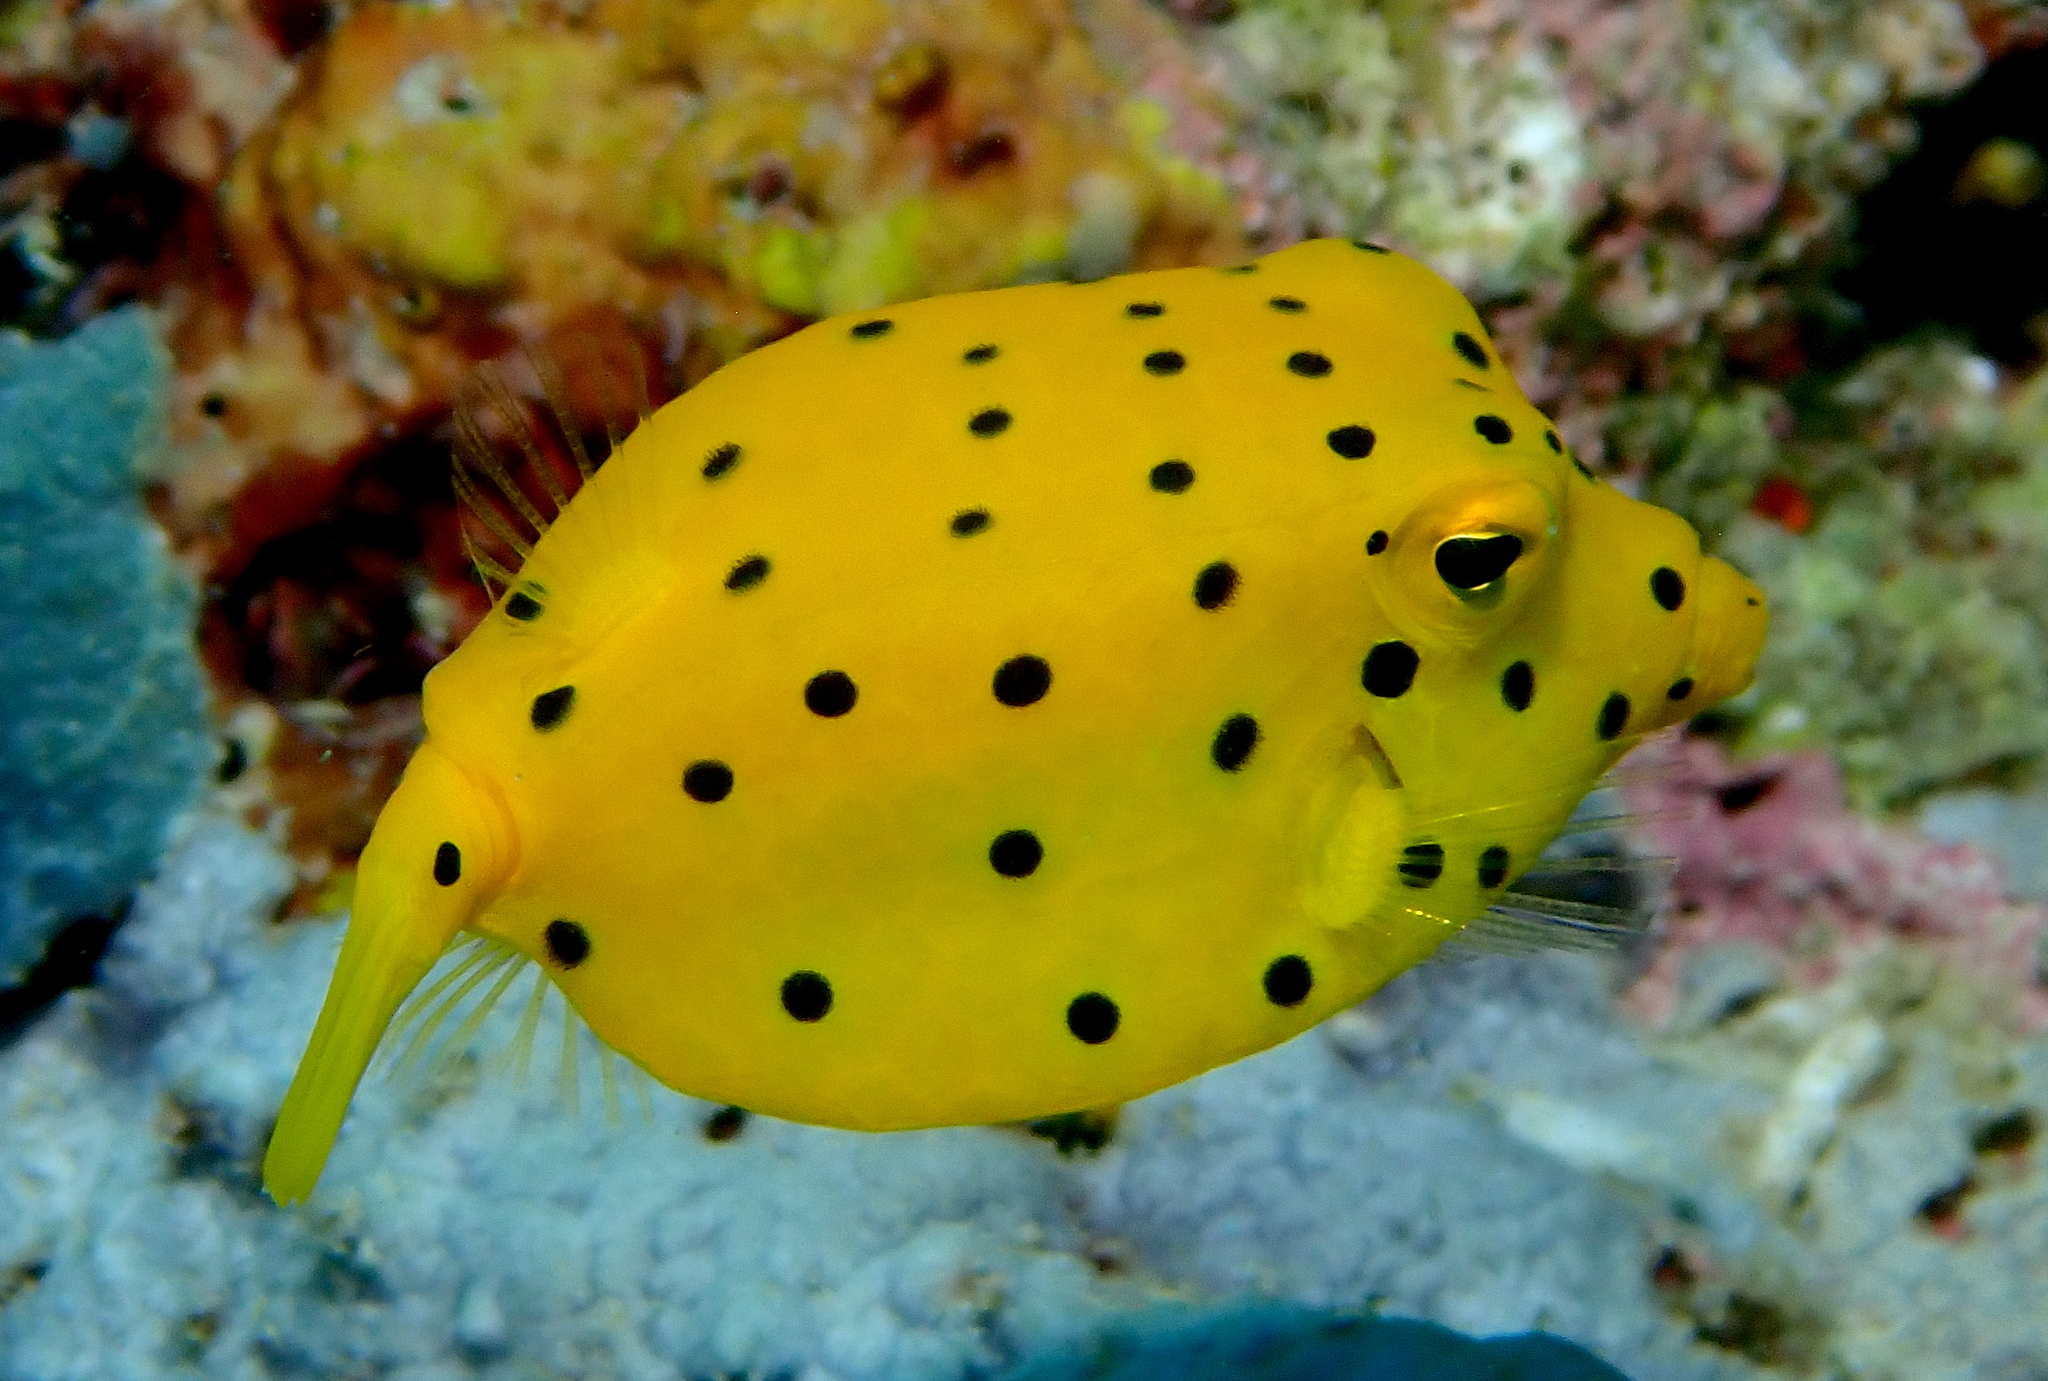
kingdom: Animalia
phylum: Chordata
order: Tetraodontiformes
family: Ostraciidae
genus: Ostracion
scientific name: Ostracion cubicus
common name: Cube trunkfish
